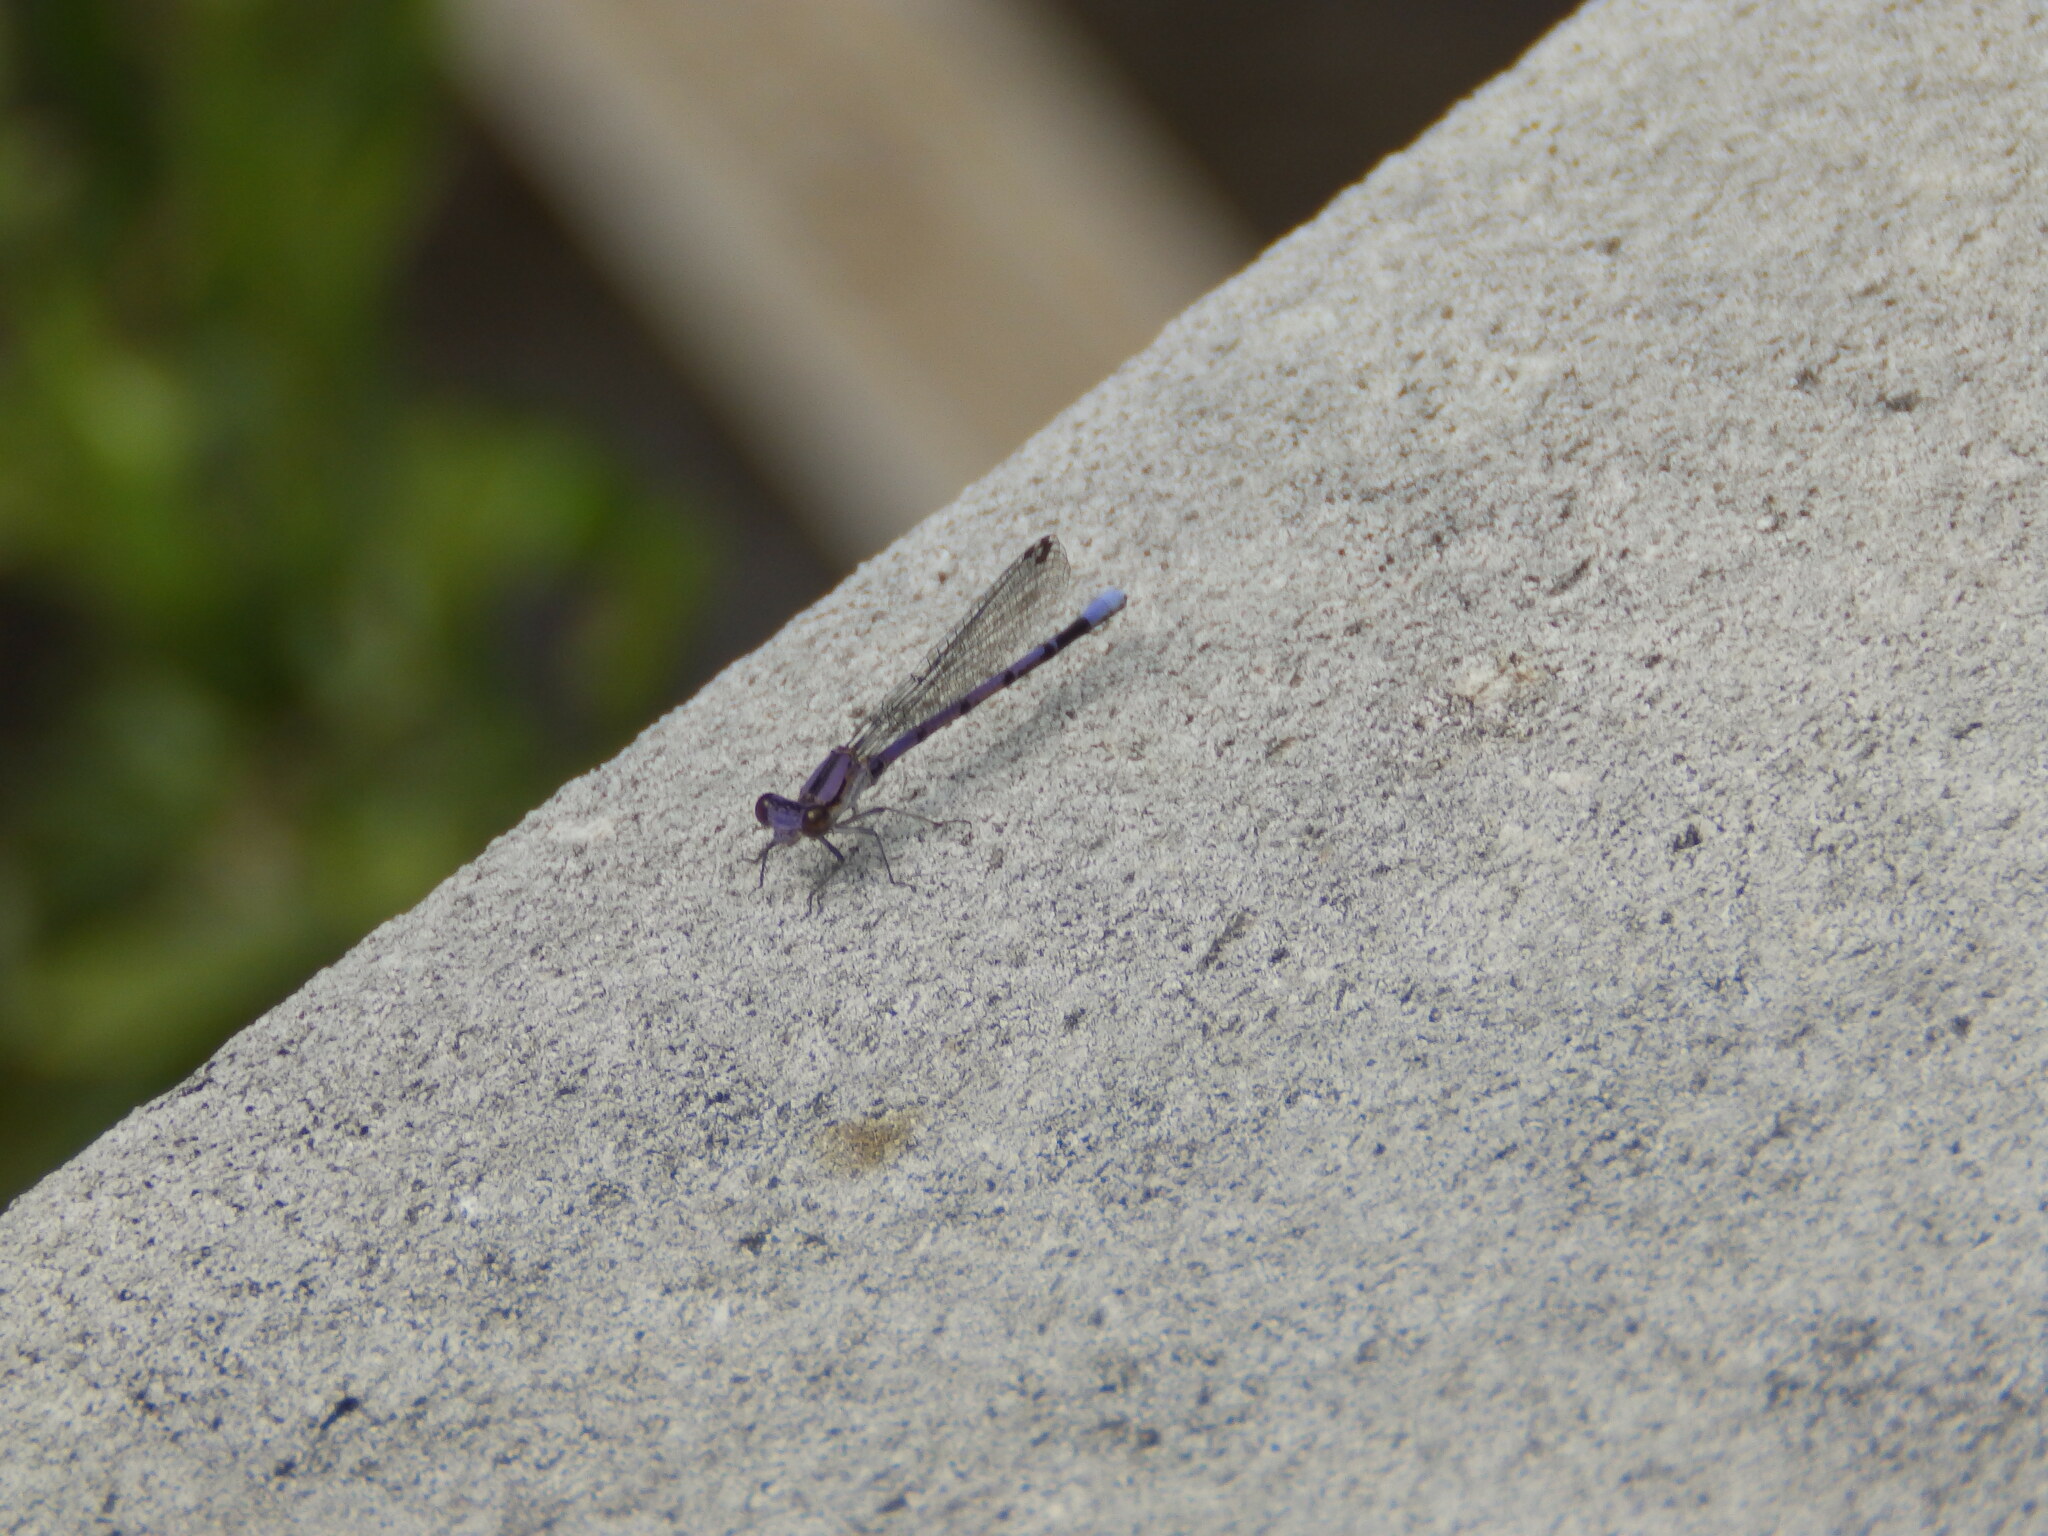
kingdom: Animalia
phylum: Arthropoda
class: Insecta
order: Odonata
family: Coenagrionidae
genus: Argia
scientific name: Argia fumipennis
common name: Variable dancer
